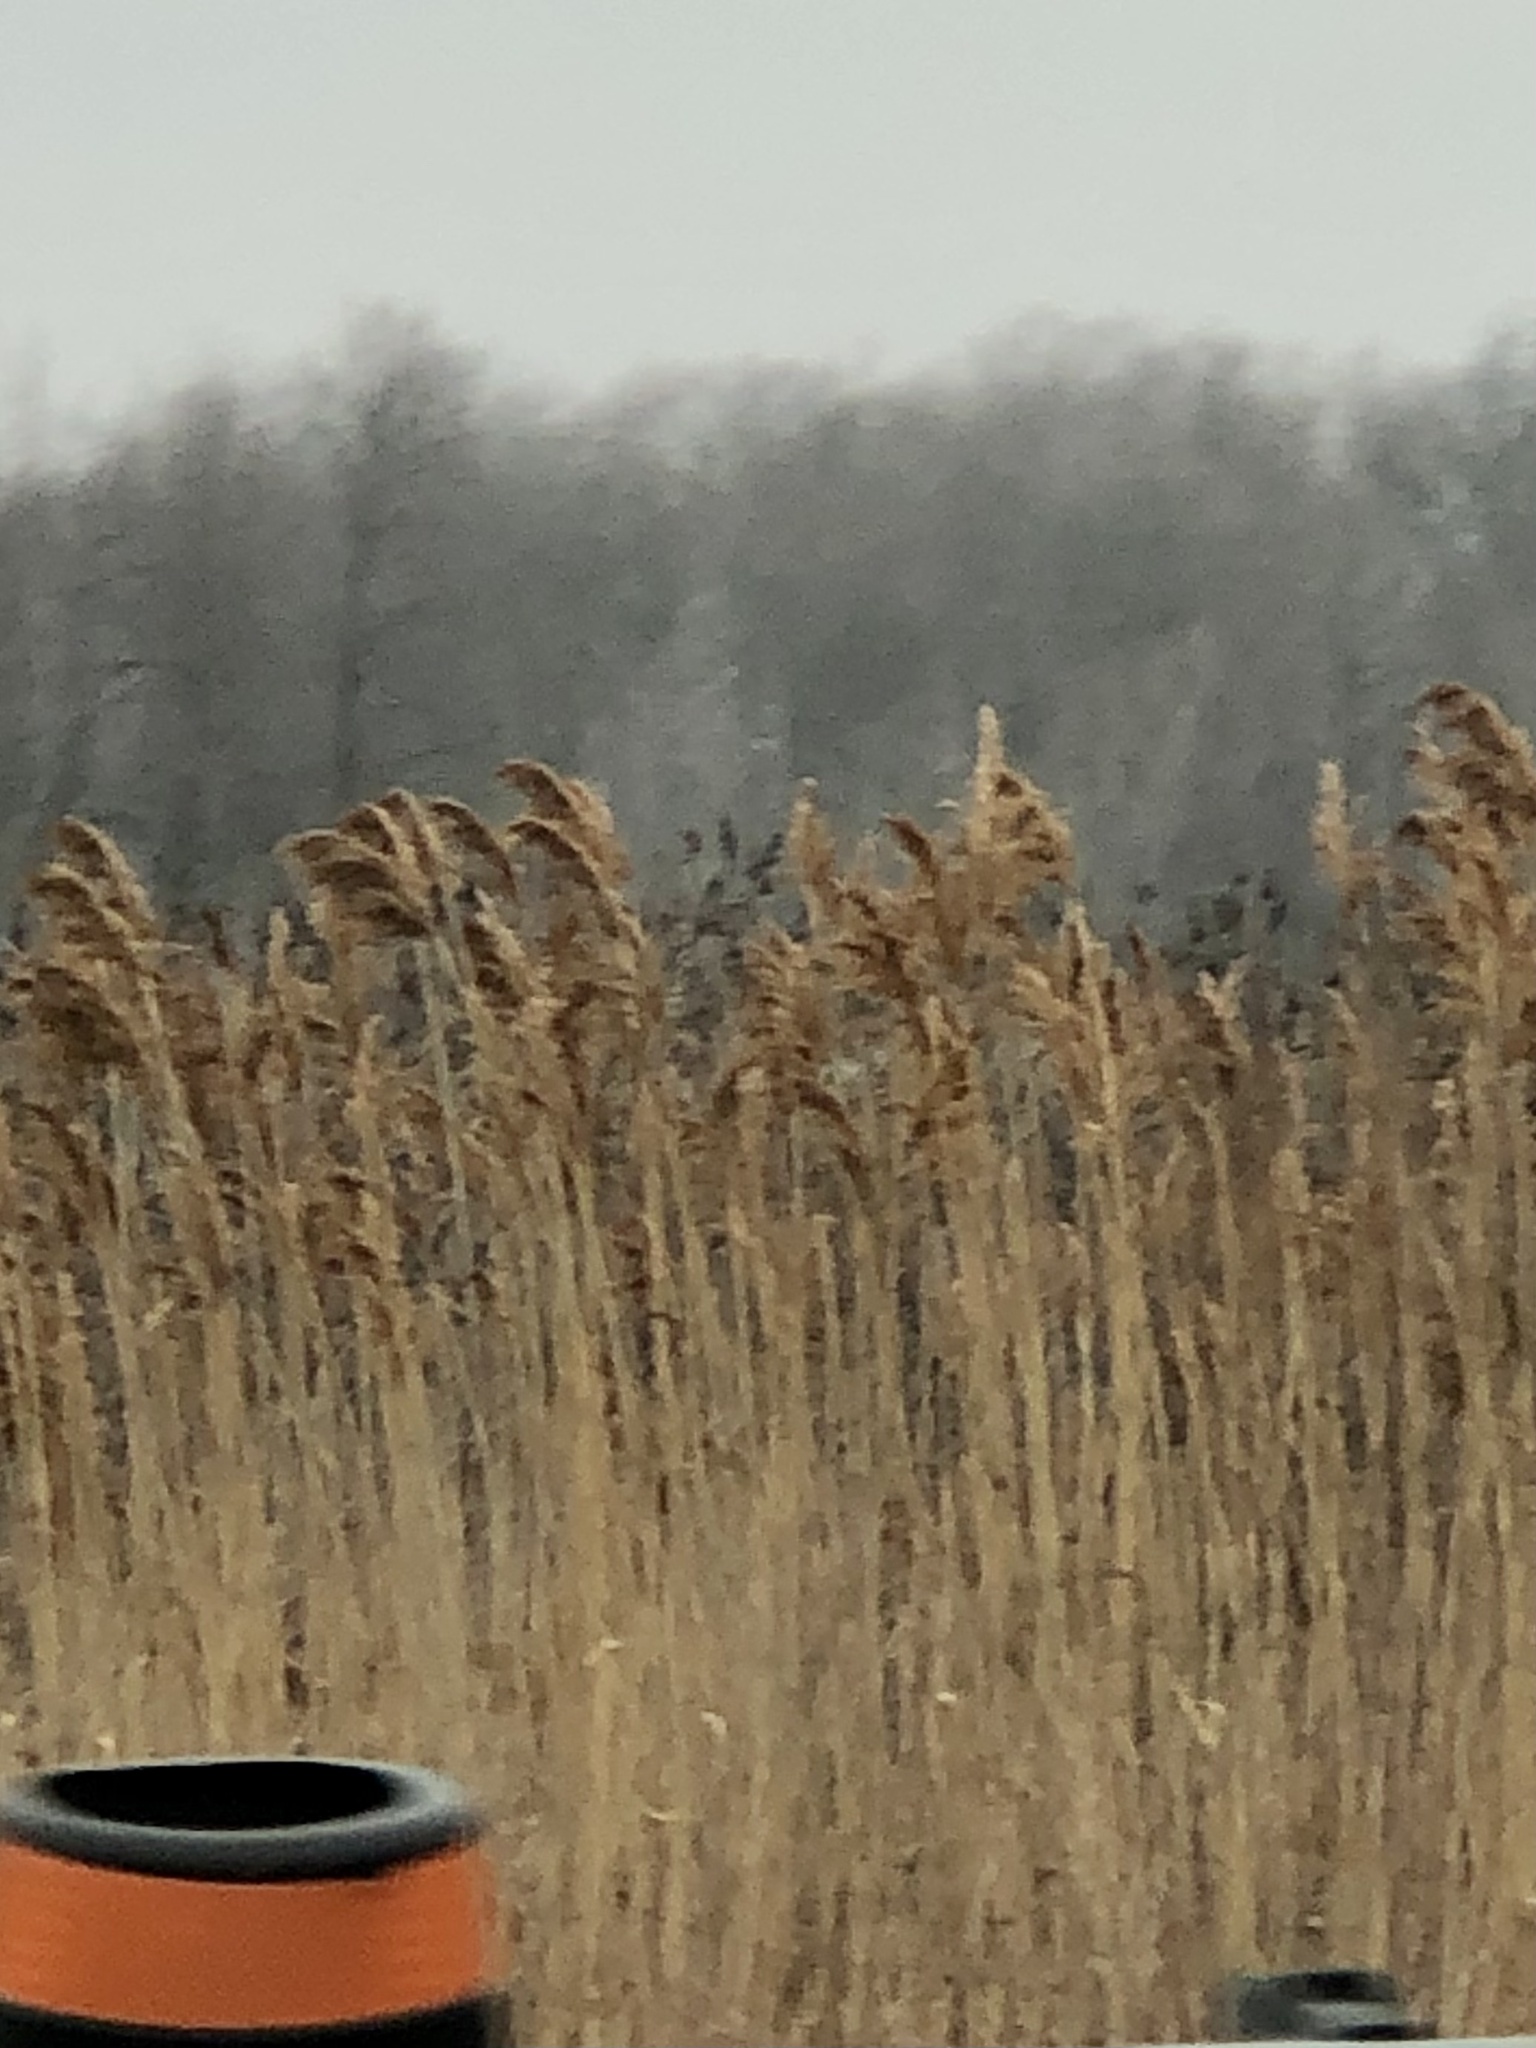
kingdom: Plantae
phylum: Tracheophyta
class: Liliopsida
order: Poales
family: Poaceae
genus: Phragmites
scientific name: Phragmites australis
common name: Common reed
